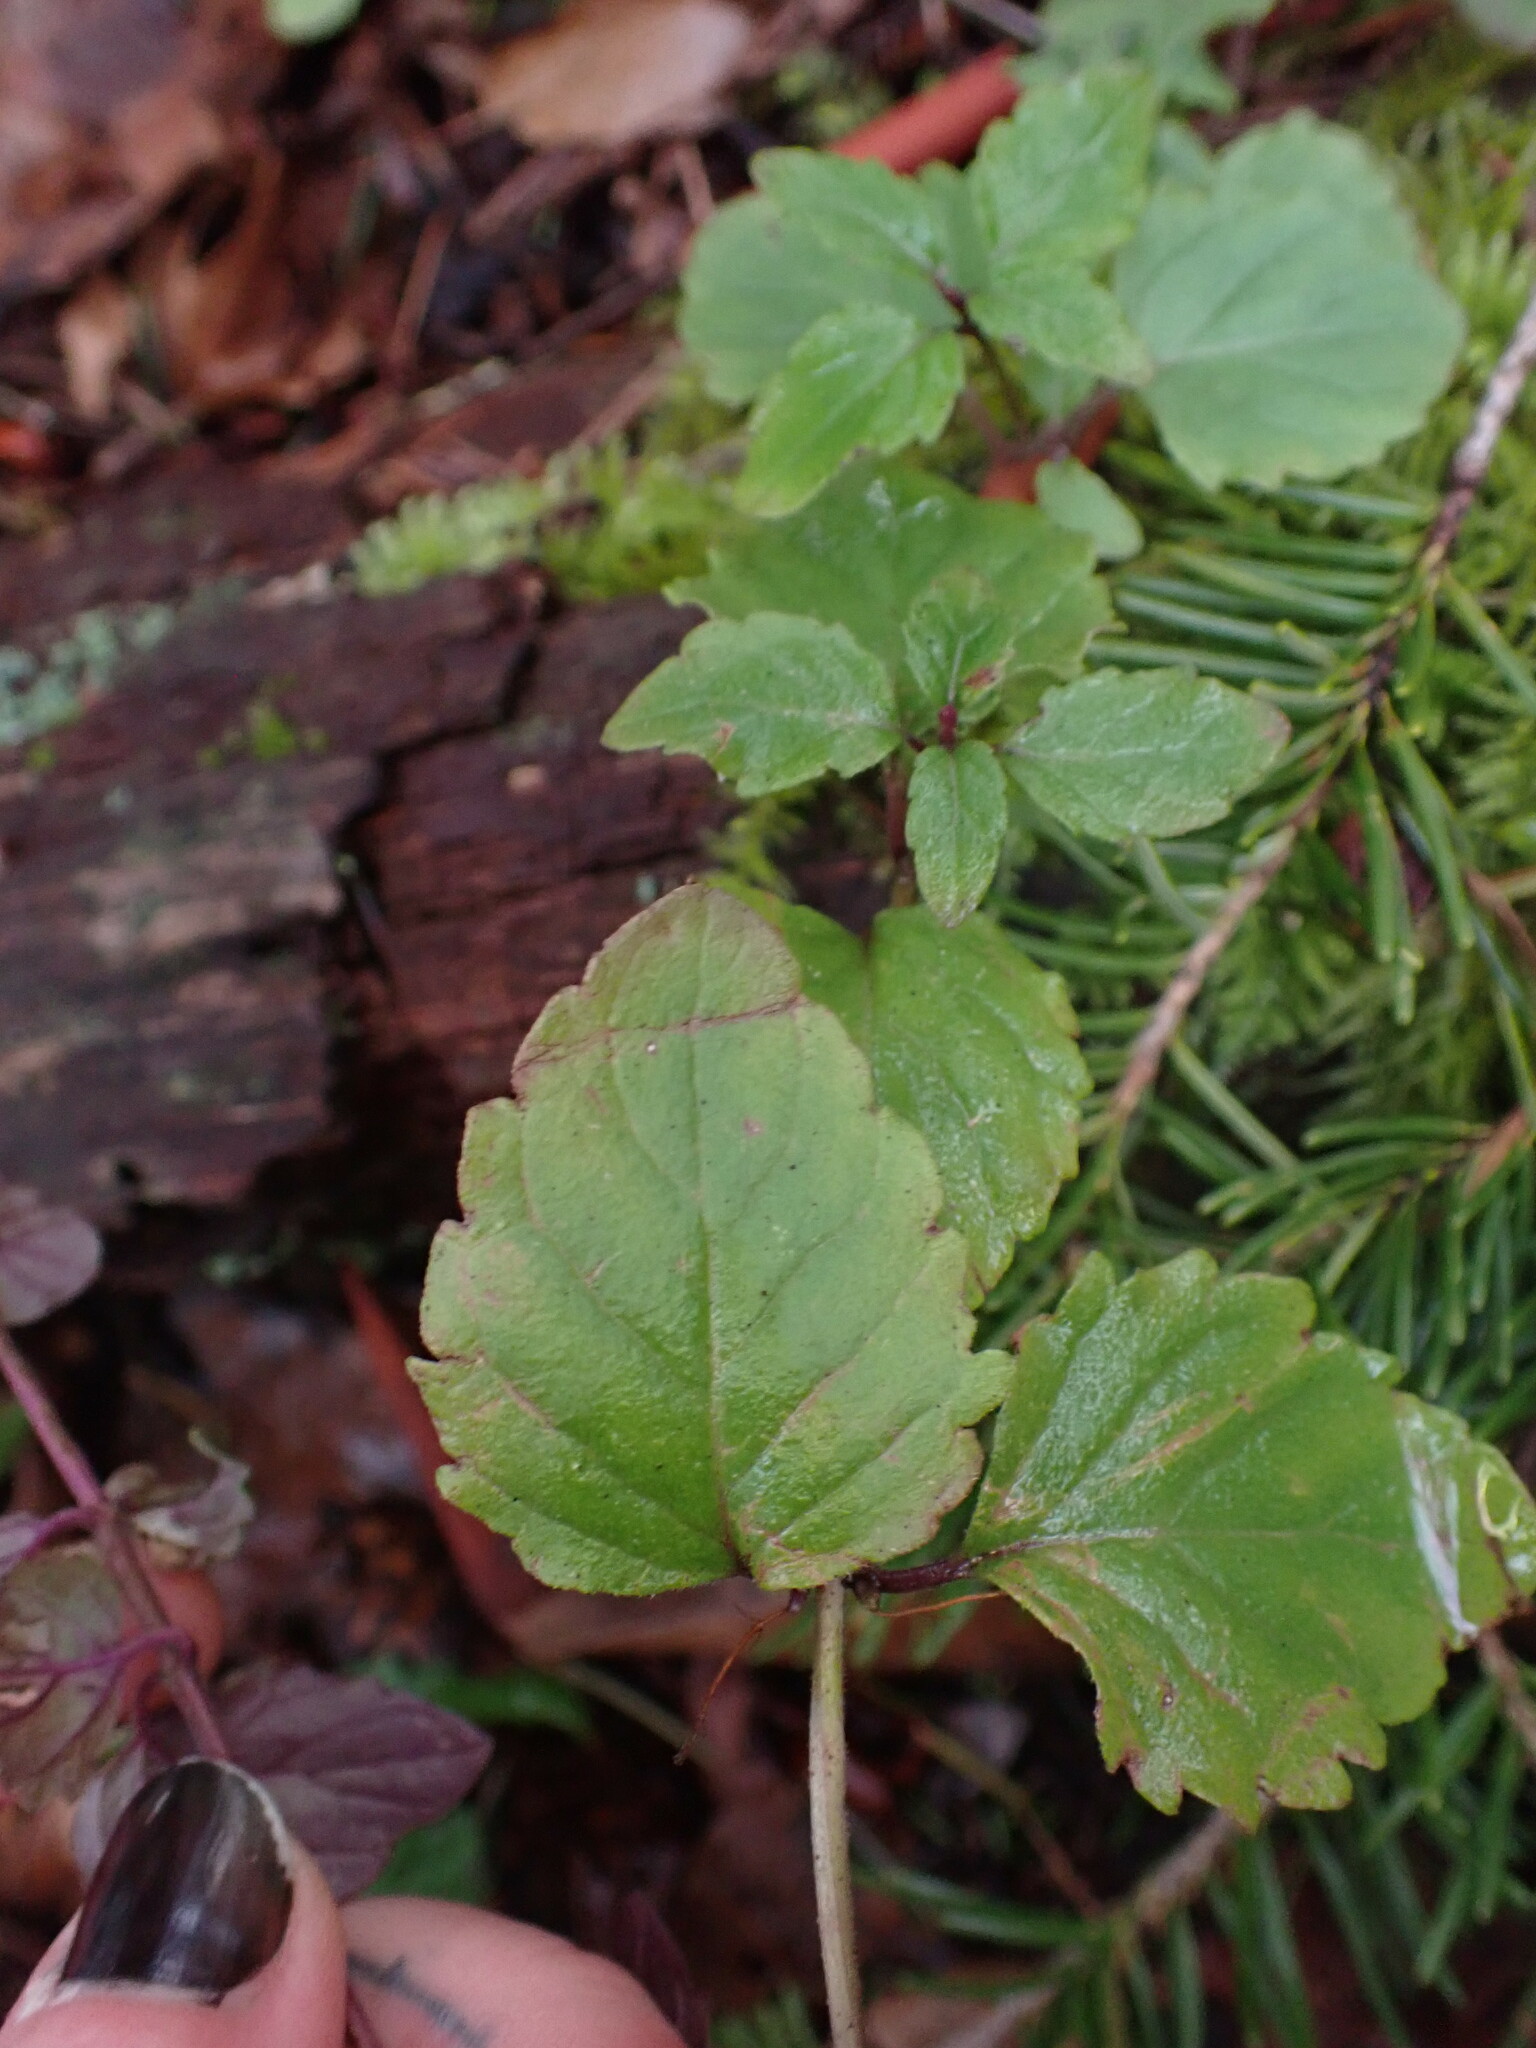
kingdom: Plantae
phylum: Tracheophyta
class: Magnoliopsida
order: Lamiales
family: Lamiaceae
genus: Micromeria
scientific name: Micromeria douglasii
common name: Yerba buena
